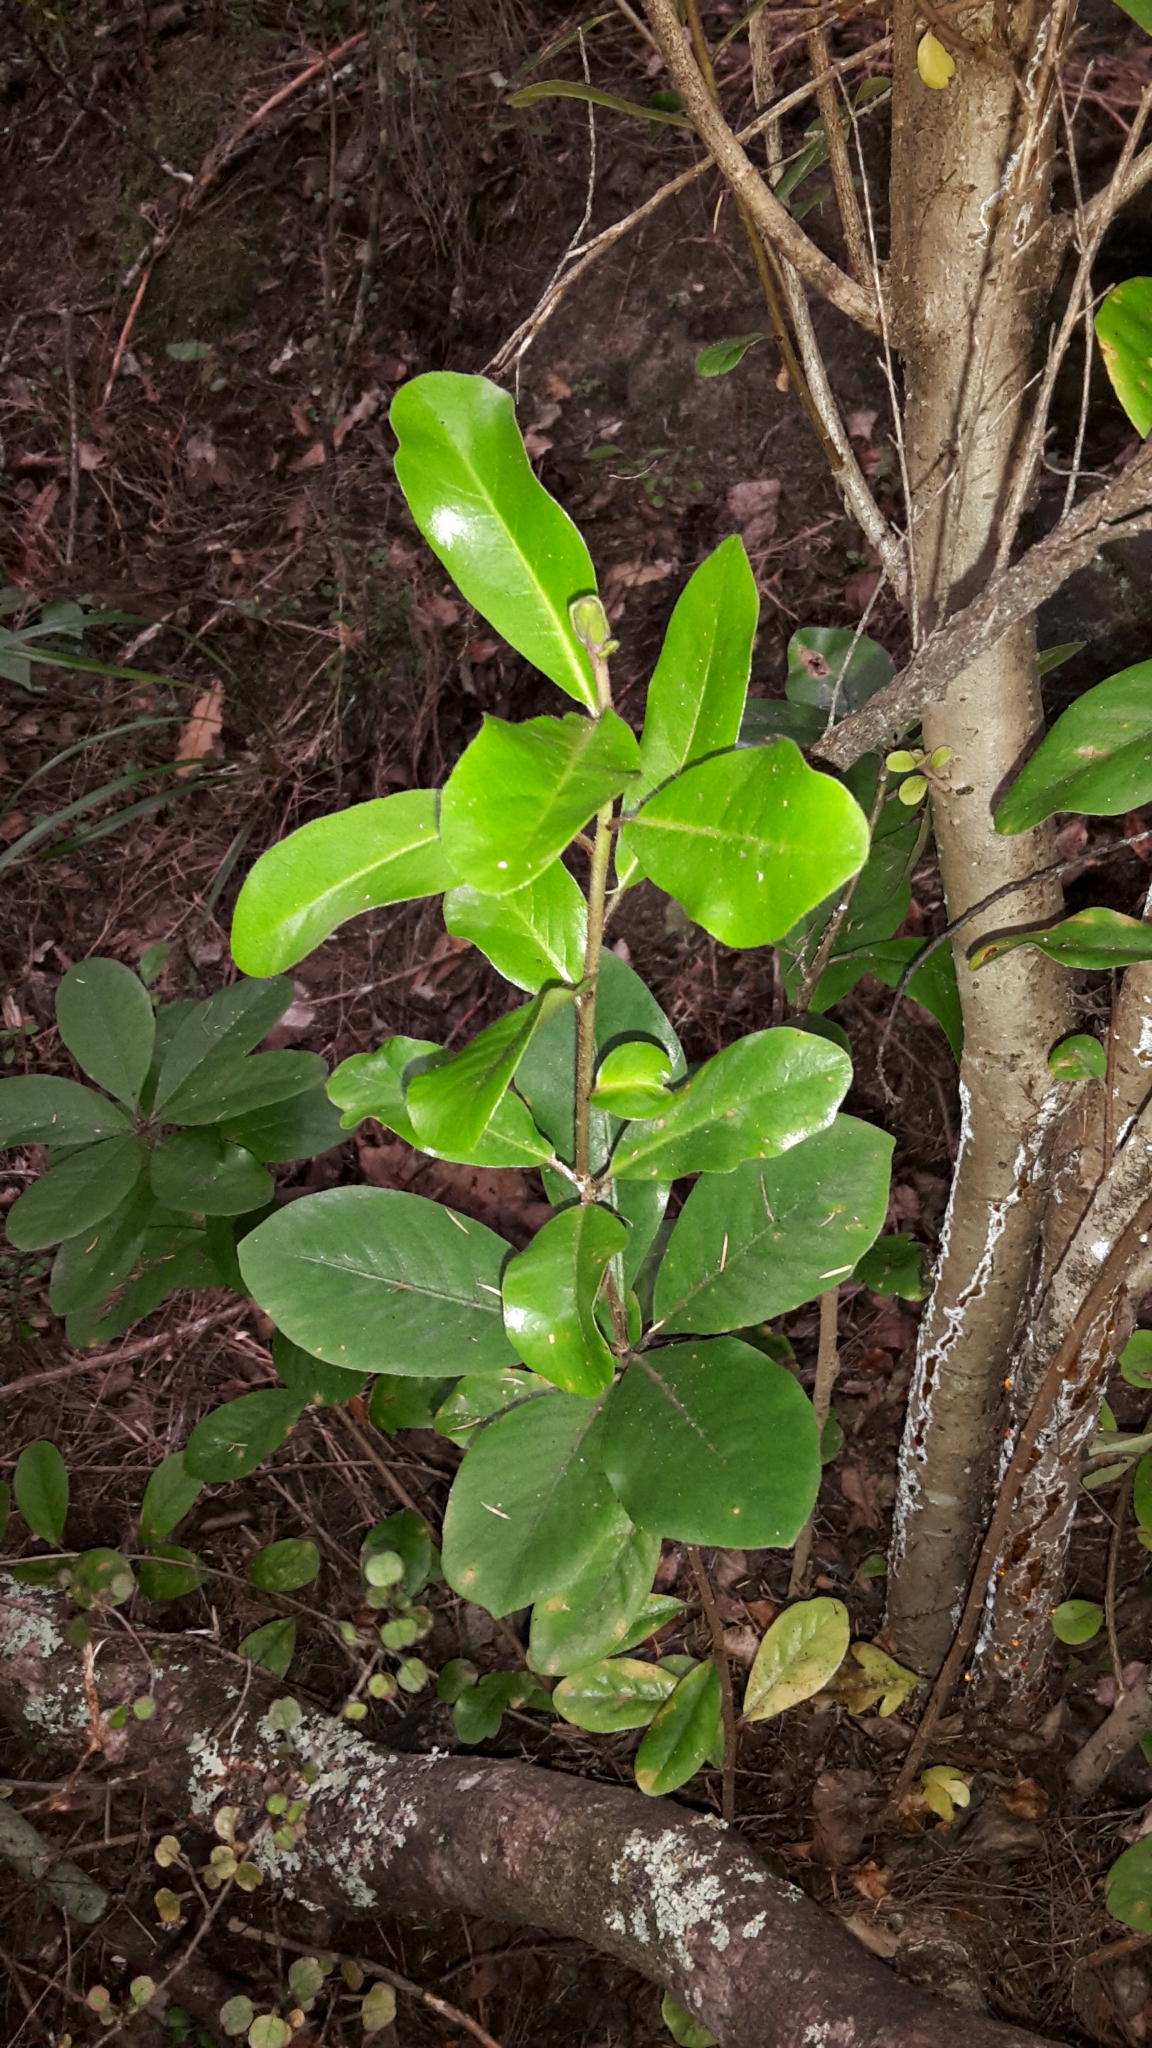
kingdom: Plantae
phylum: Tracheophyta
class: Magnoliopsida
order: Apiales
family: Pittosporaceae
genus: Pittosporum
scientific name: Pittosporum umbellatum
